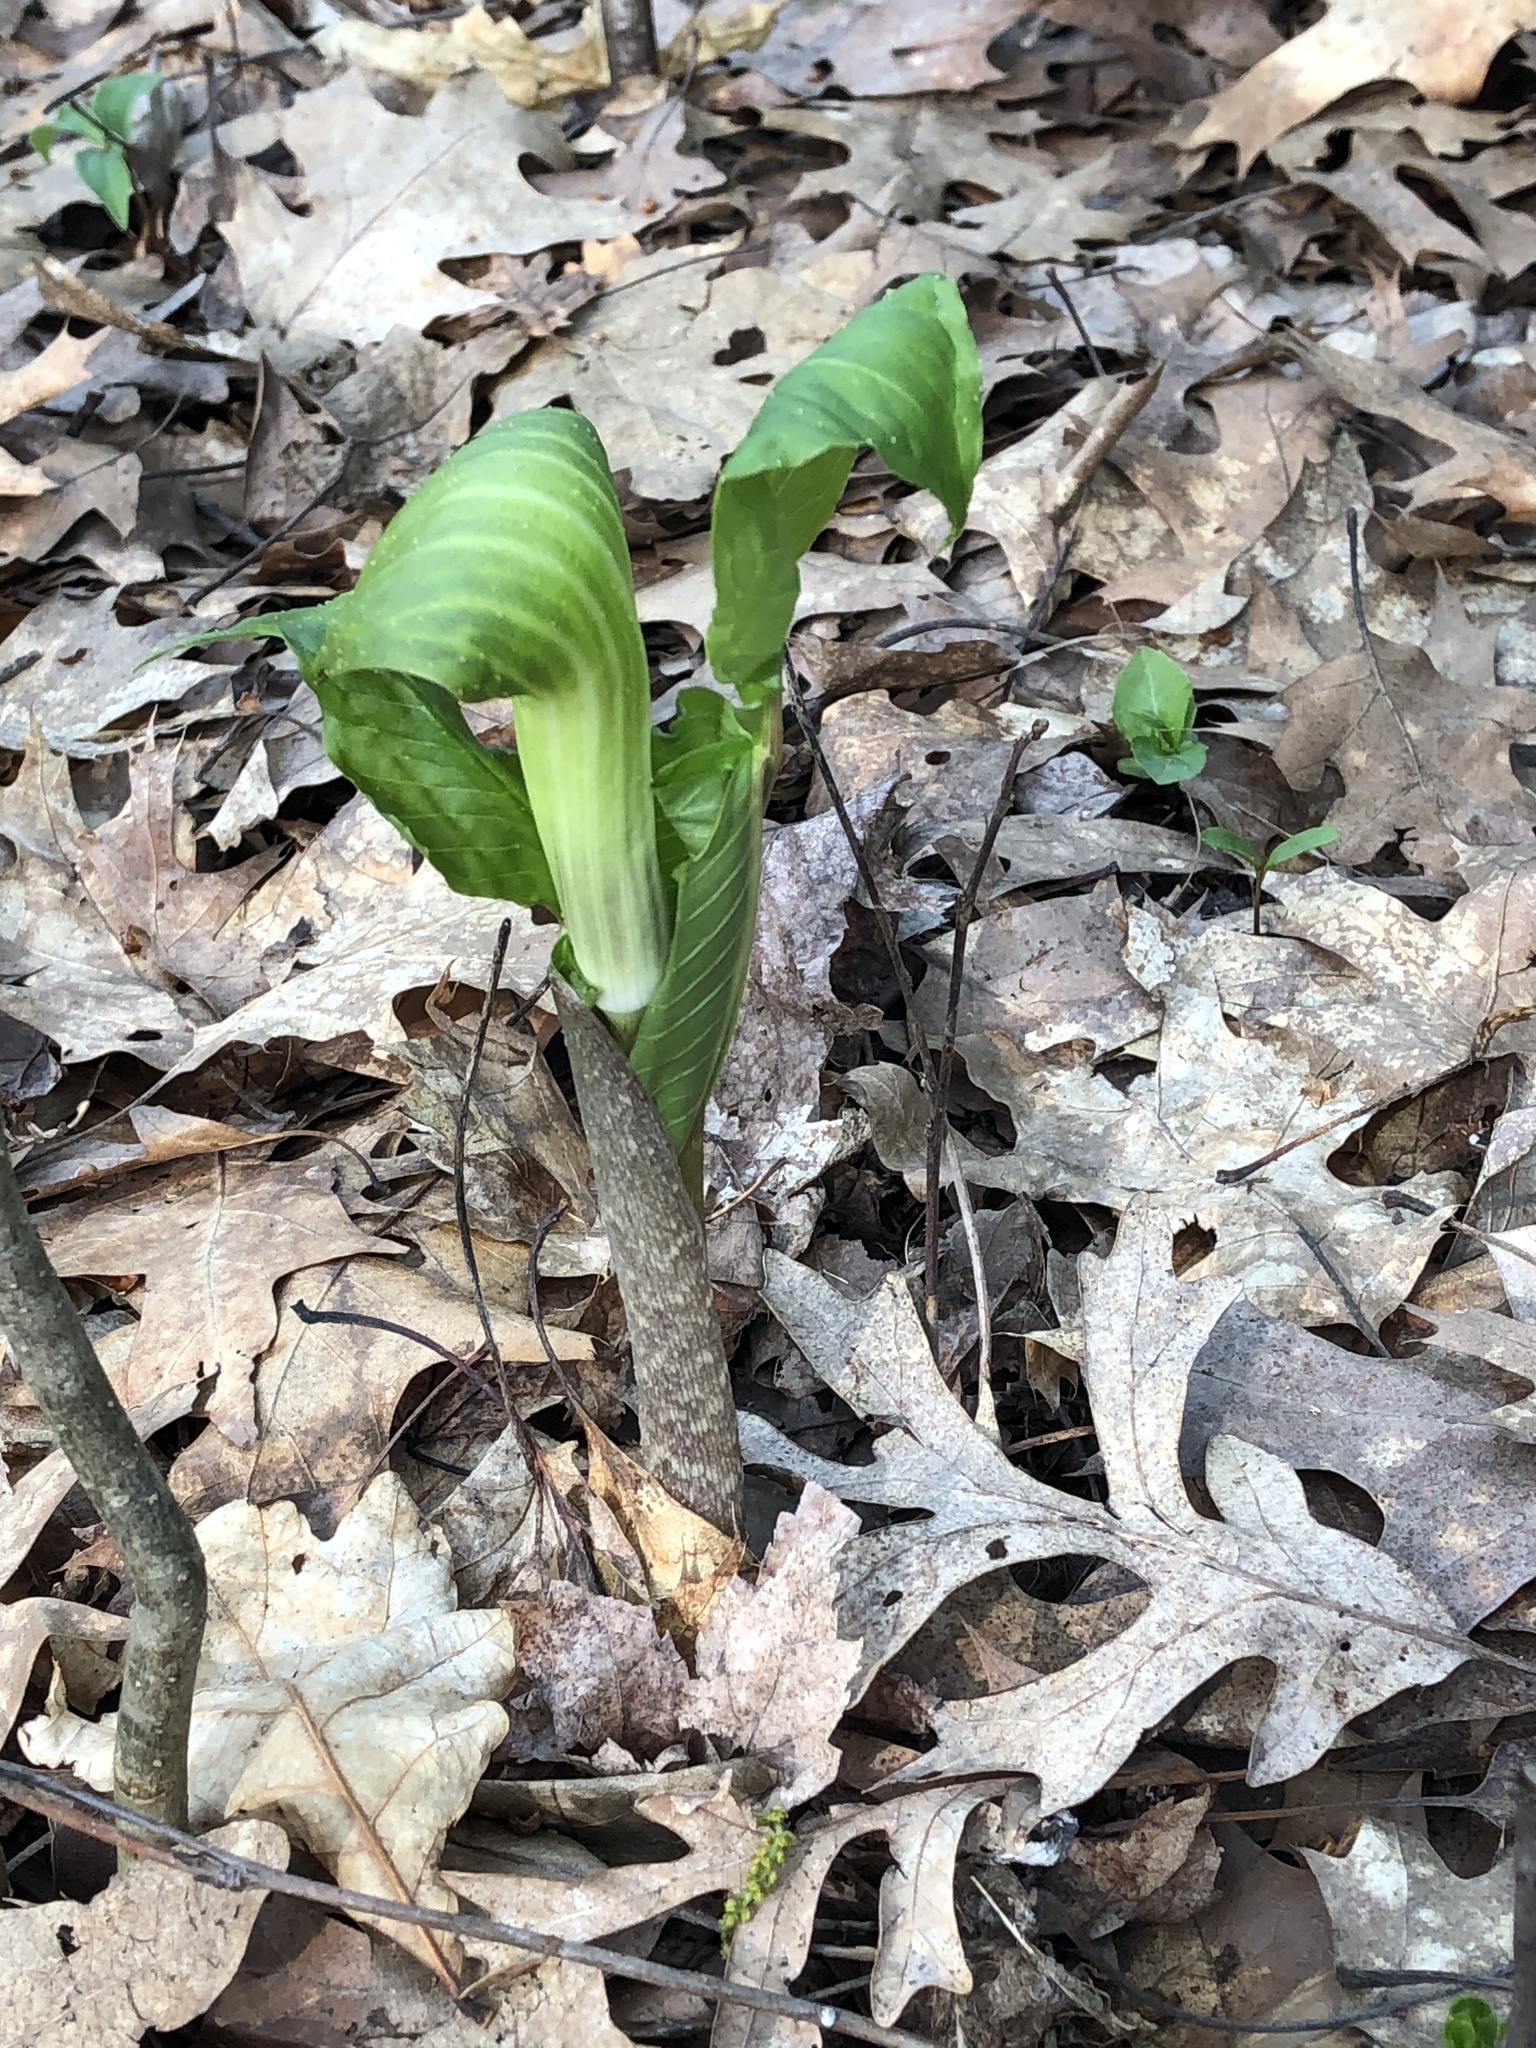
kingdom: Plantae
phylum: Tracheophyta
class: Liliopsida
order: Alismatales
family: Araceae
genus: Arisaema
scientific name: Arisaema triphyllum
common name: Jack-in-the-pulpit
